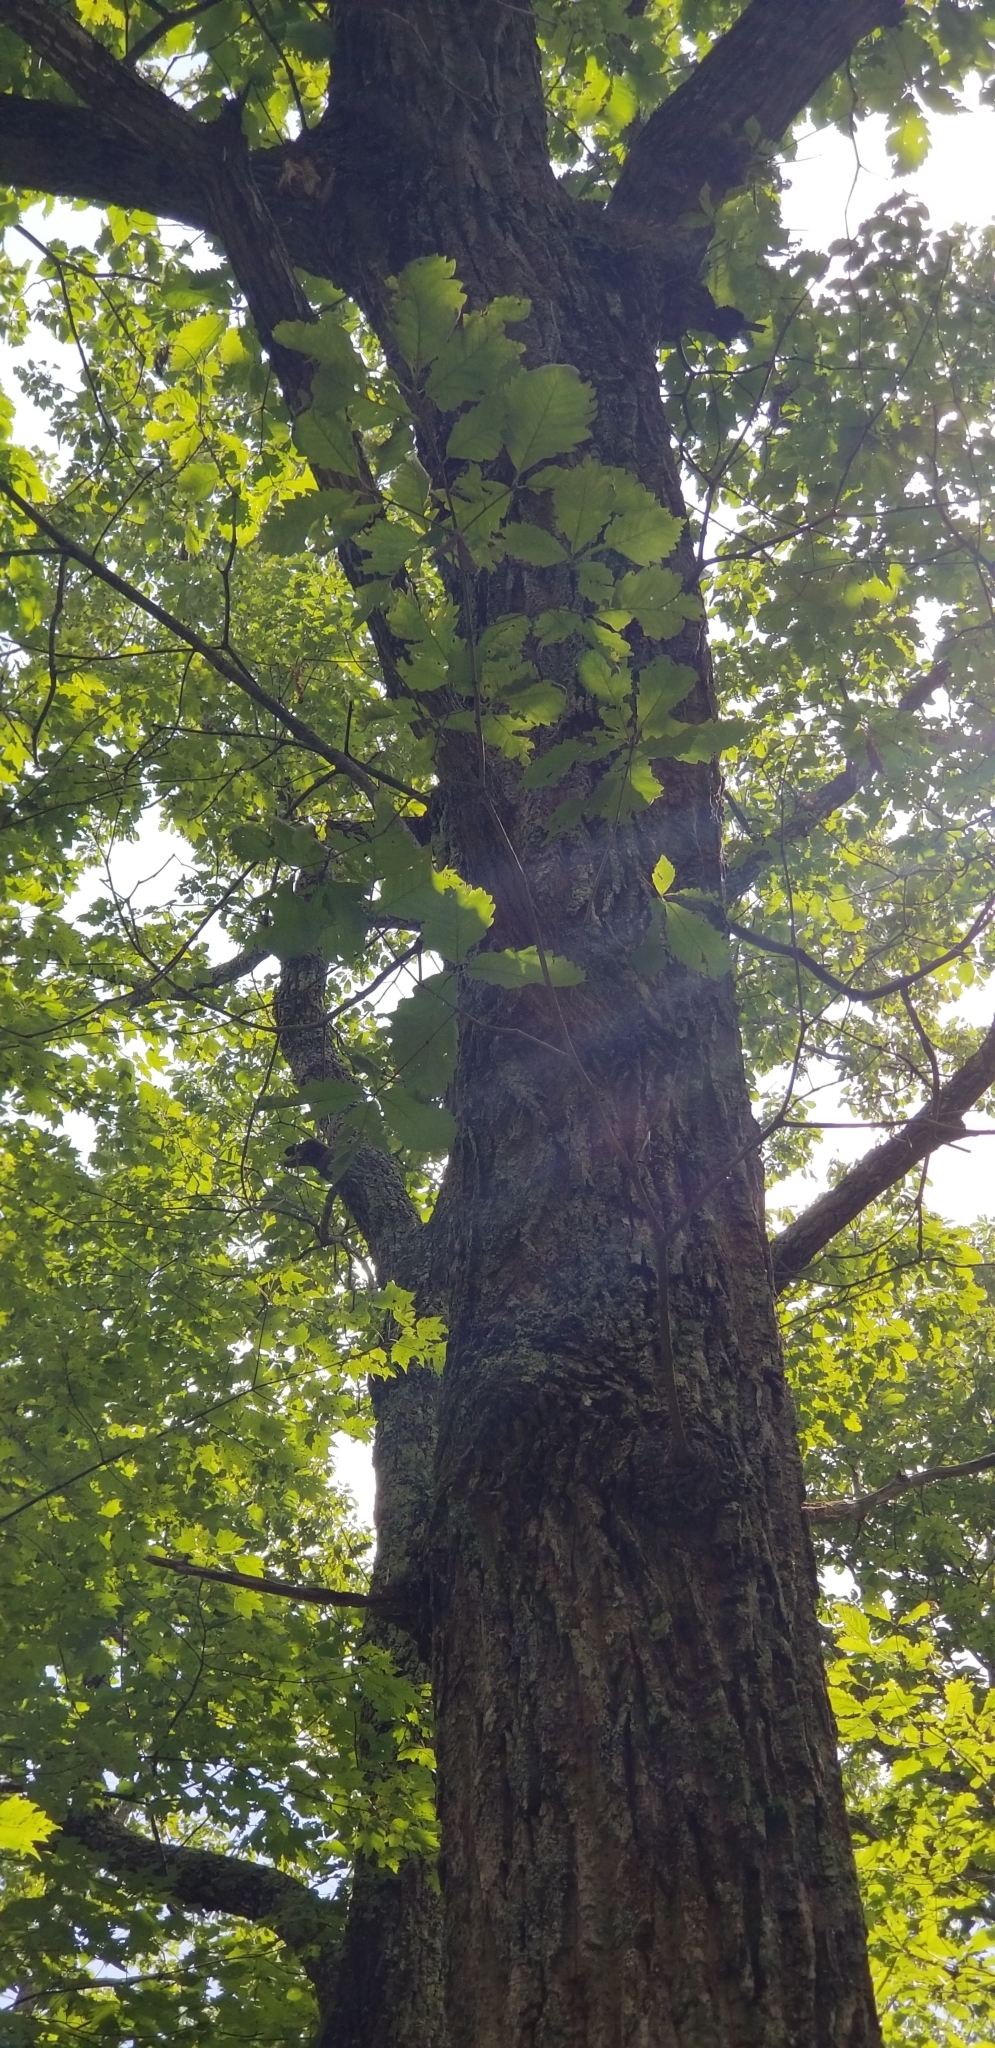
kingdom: Plantae
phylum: Tracheophyta
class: Magnoliopsida
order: Fagales
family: Fagaceae
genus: Quercus
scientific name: Quercus montana
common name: Chestnut oak
